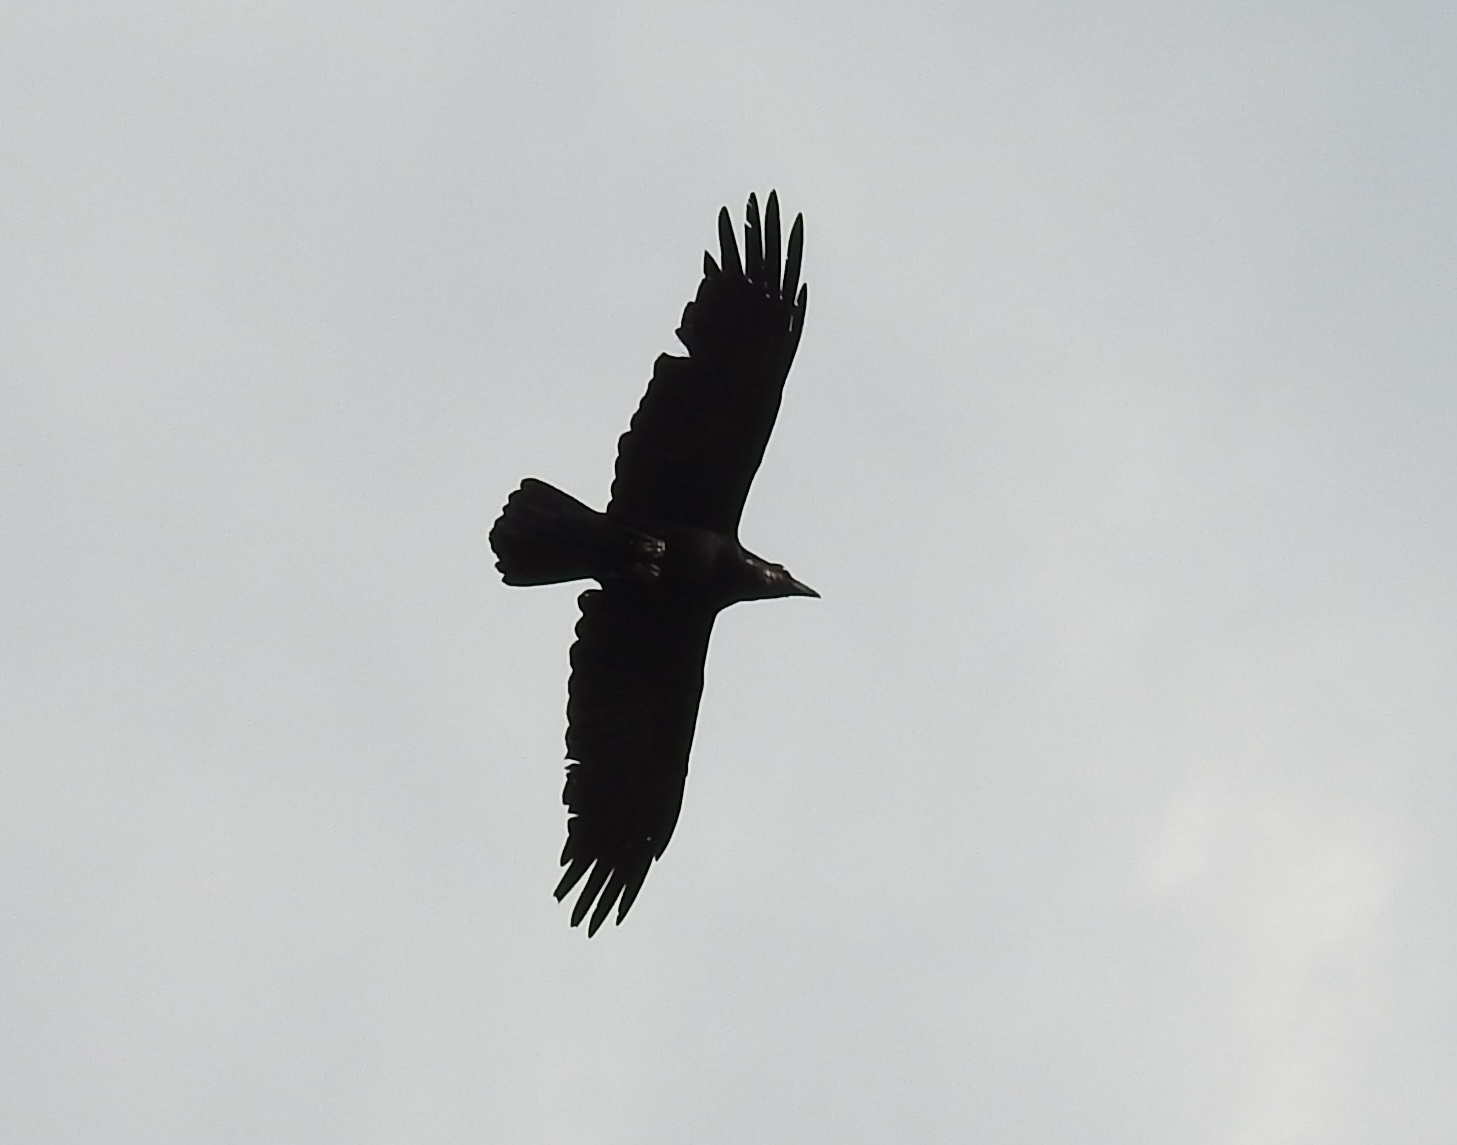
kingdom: Animalia
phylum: Chordata
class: Aves
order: Passeriformes
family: Corvidae
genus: Corvus
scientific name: Corvus corax
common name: Common raven
